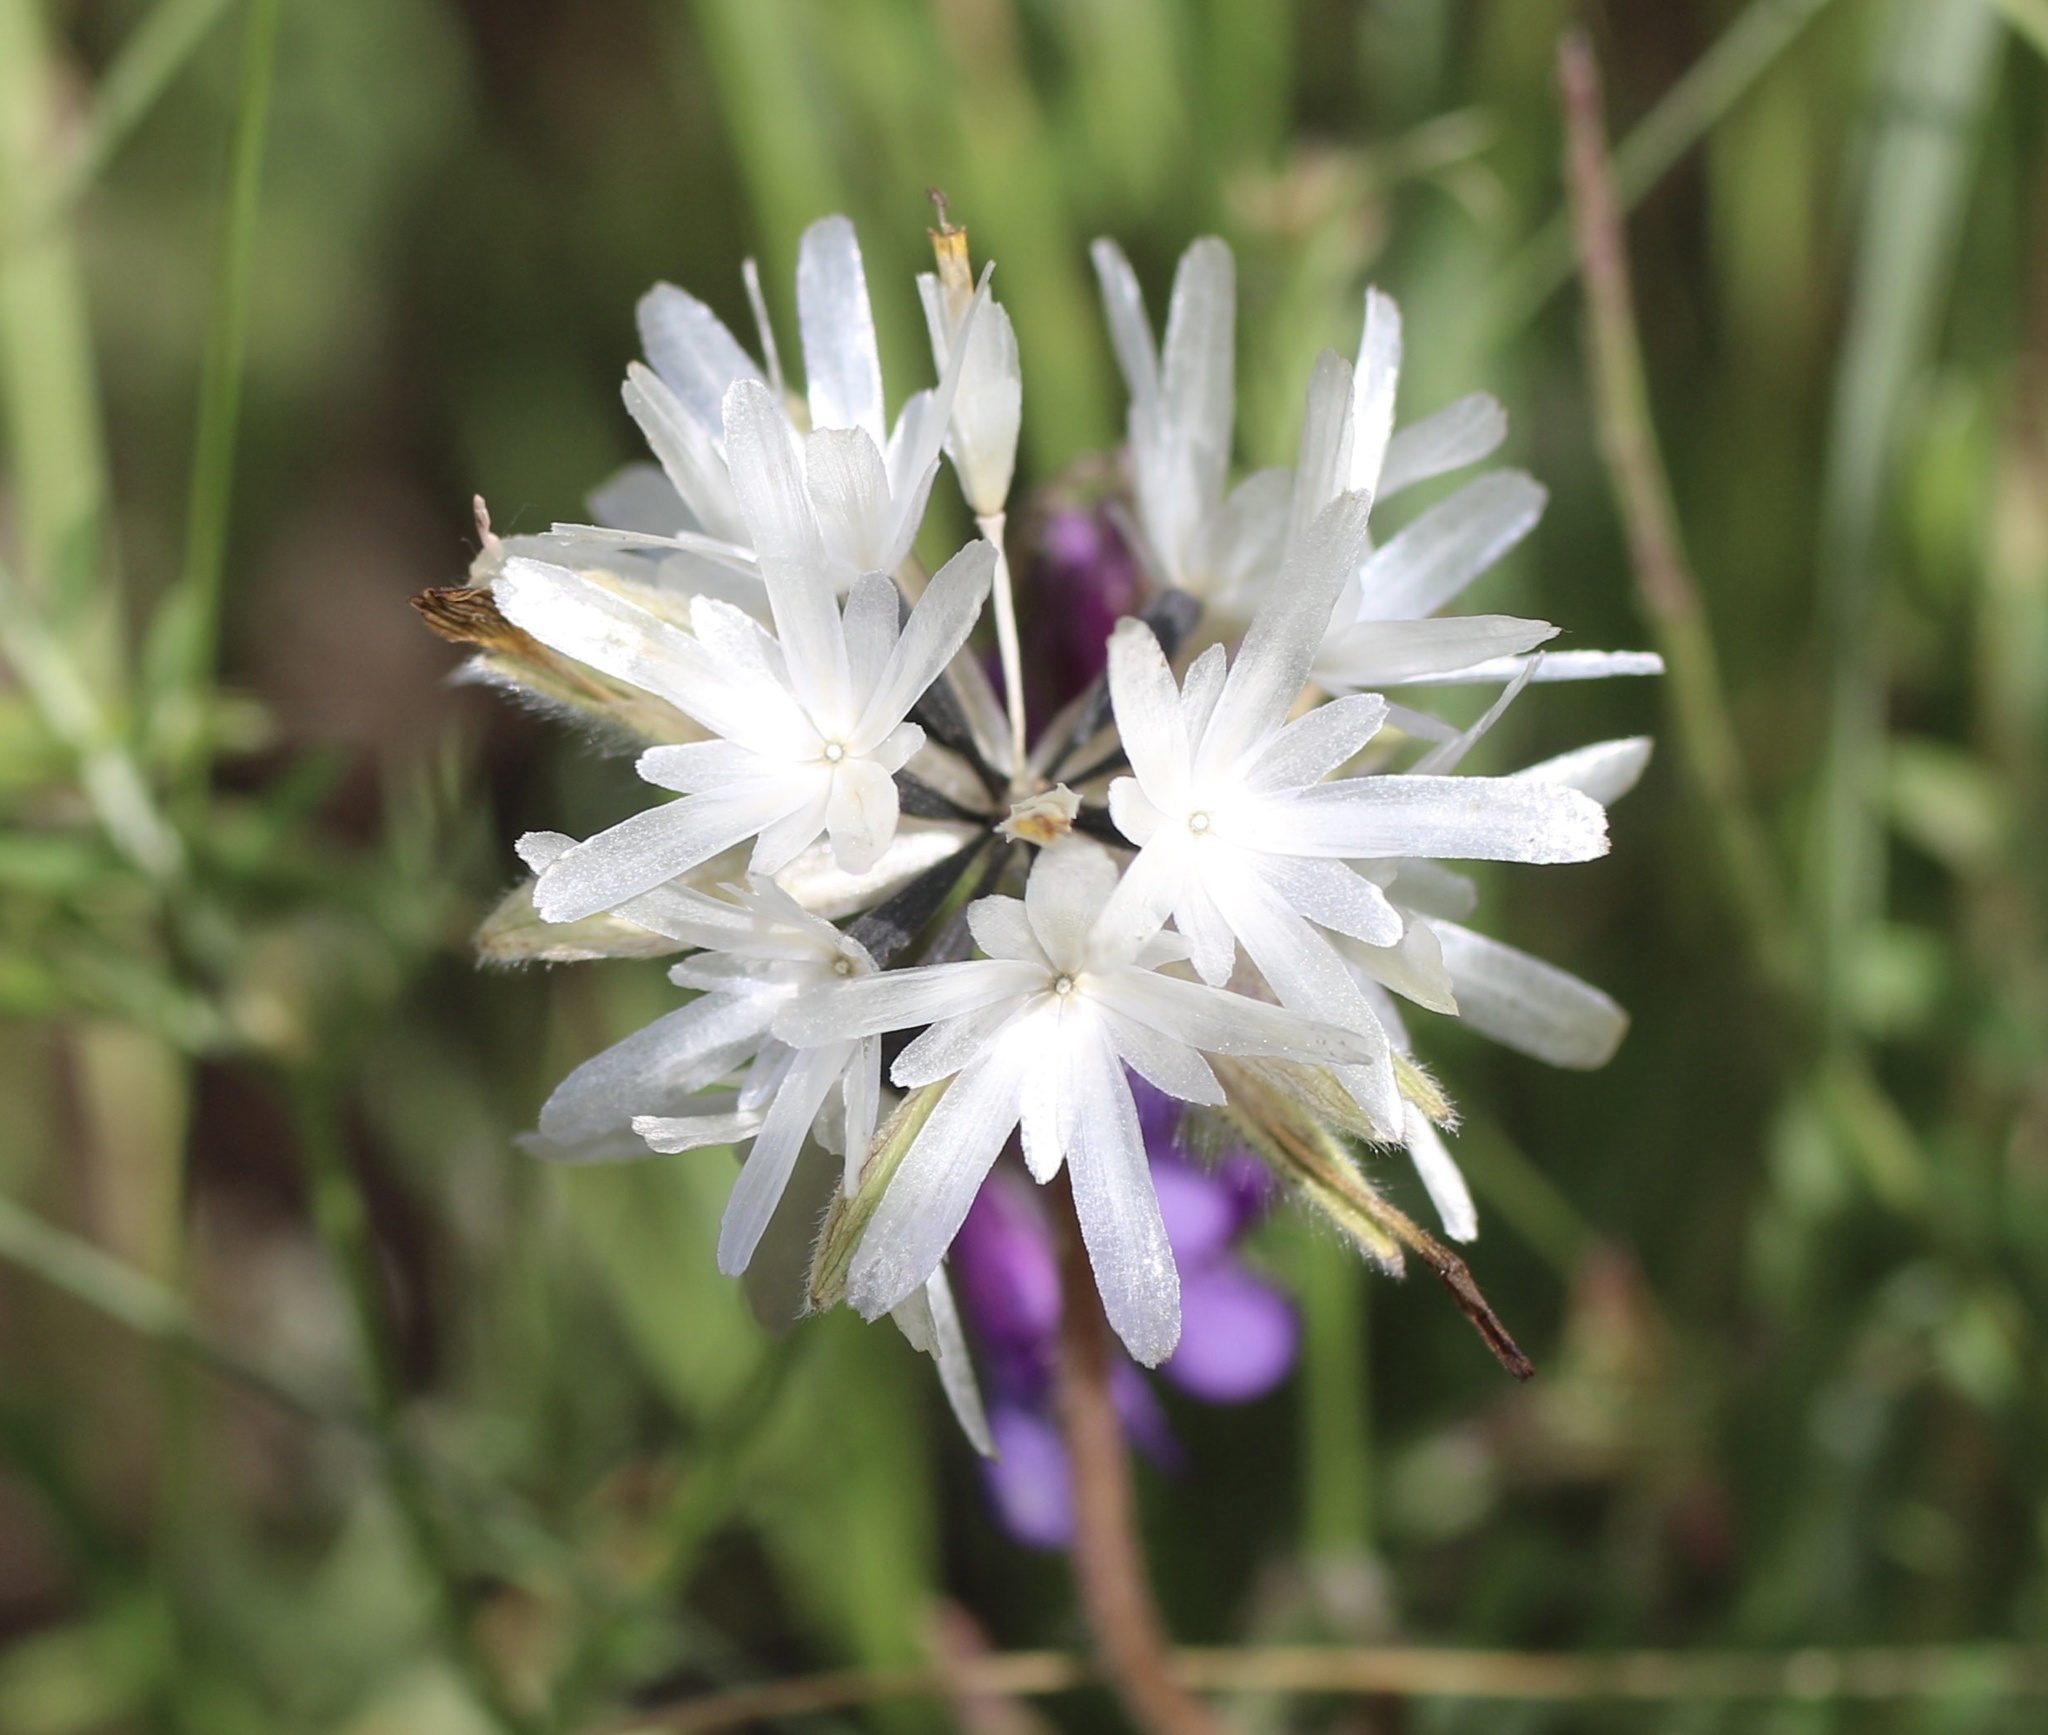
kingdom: Plantae
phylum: Tracheophyta
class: Magnoliopsida
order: Asterales
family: Asteraceae
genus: Achyrachaena
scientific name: Achyrachaena mollis
